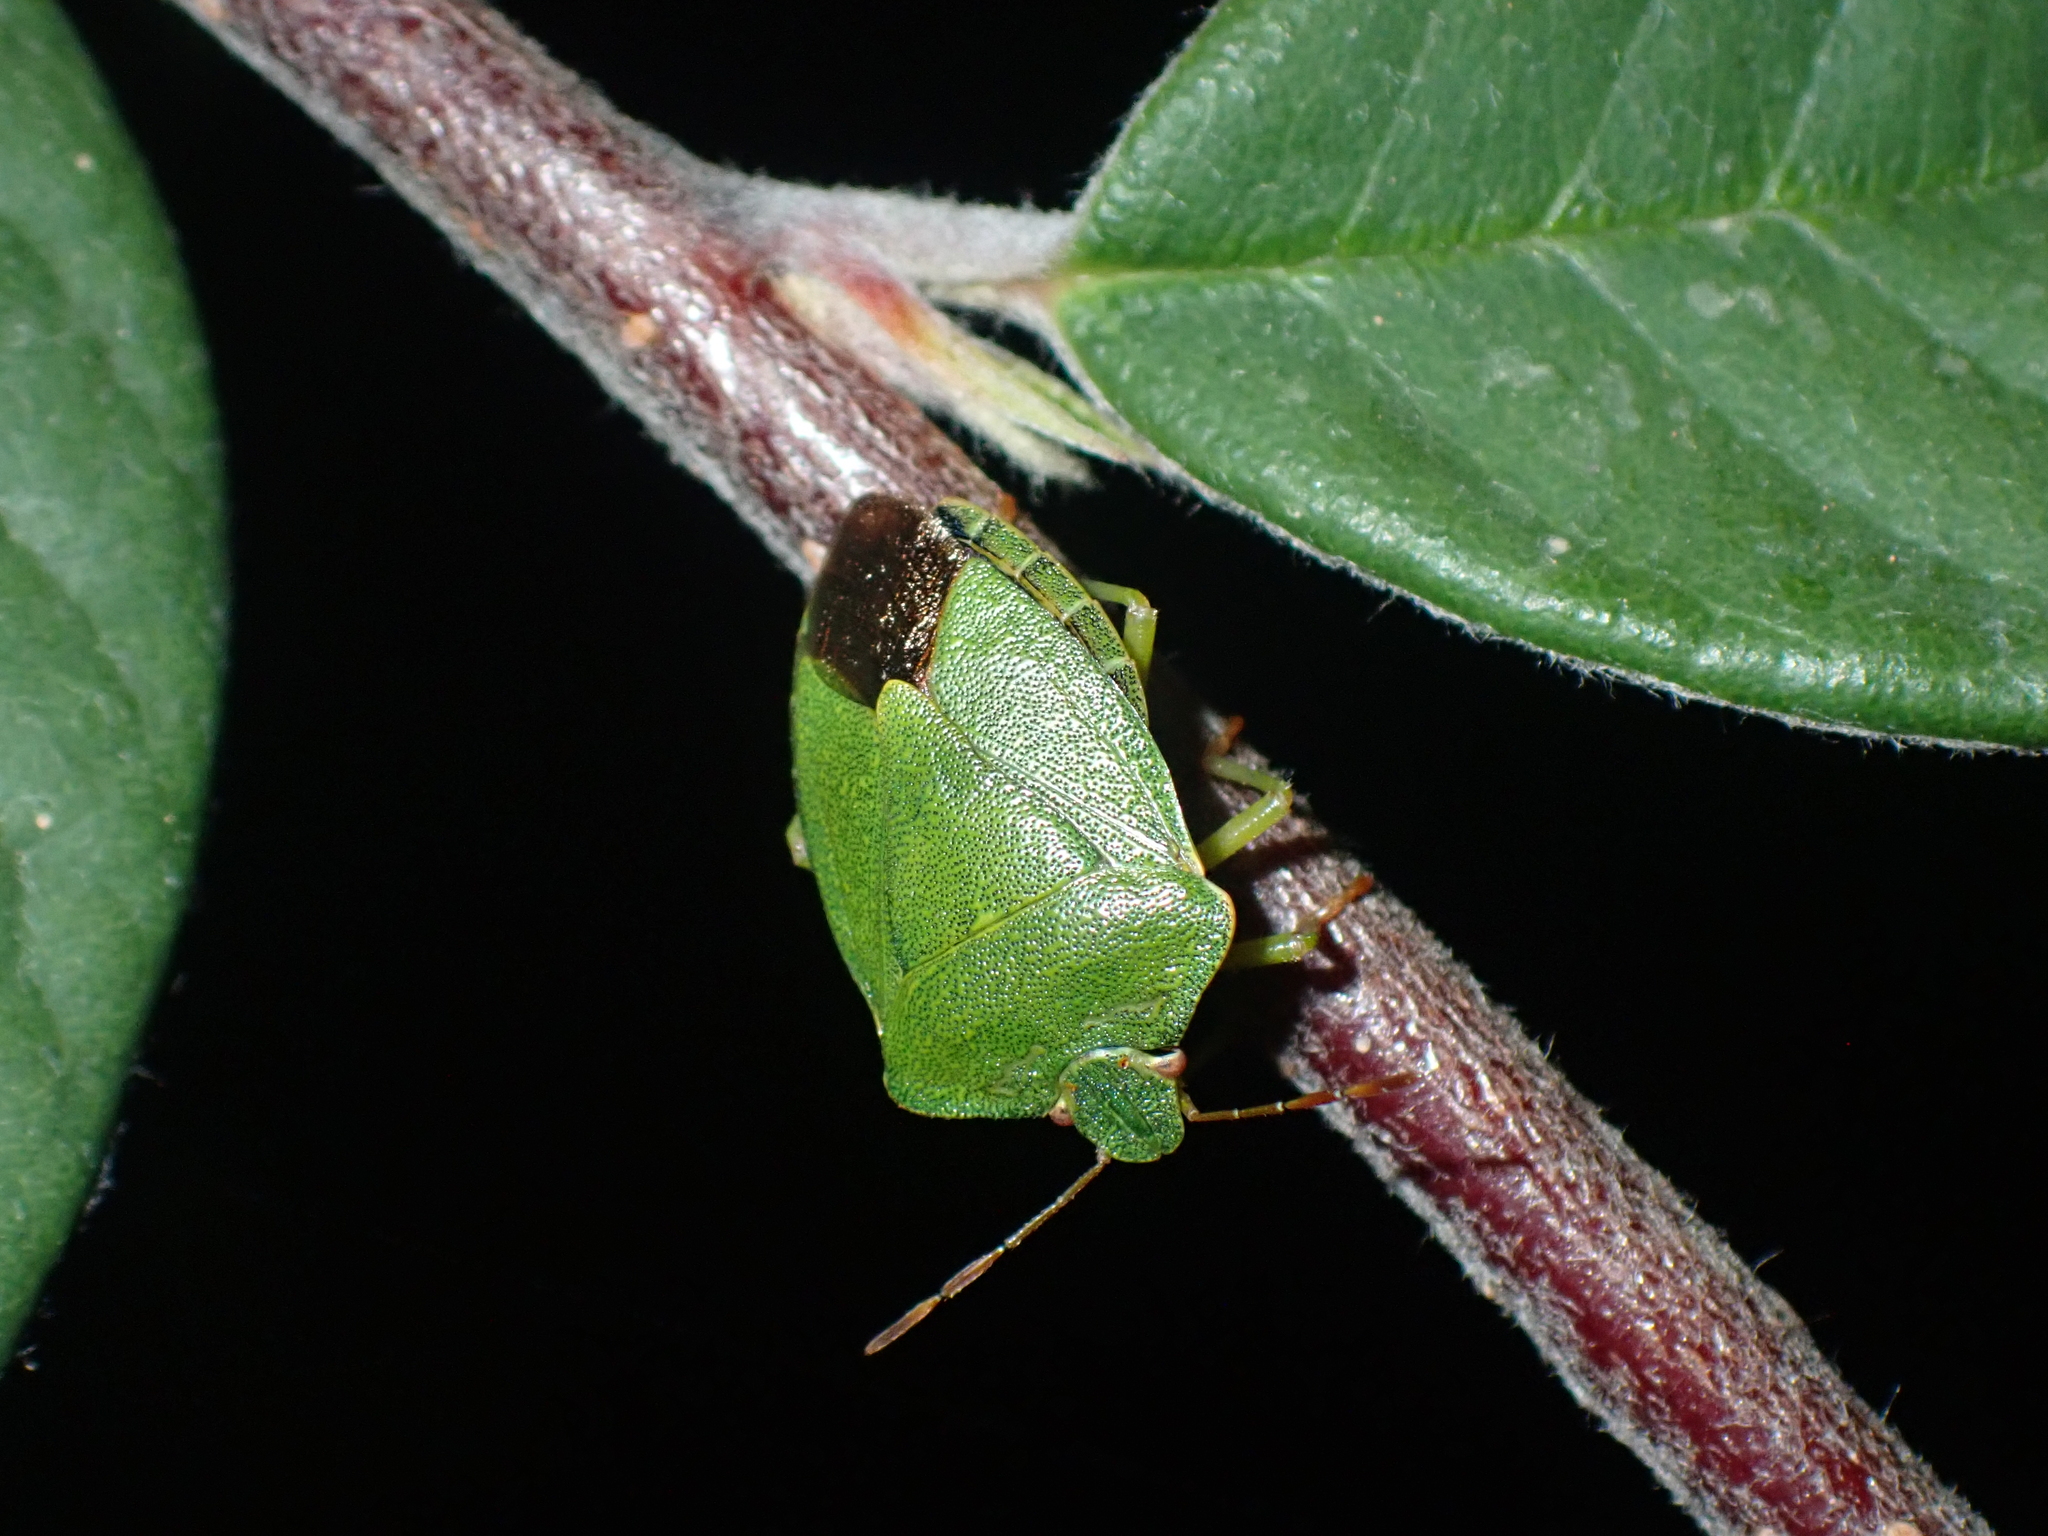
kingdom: Animalia
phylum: Arthropoda
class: Insecta
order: Hemiptera
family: Pentatomidae
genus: Palomena
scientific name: Palomena prasina
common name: Green shieldbug
